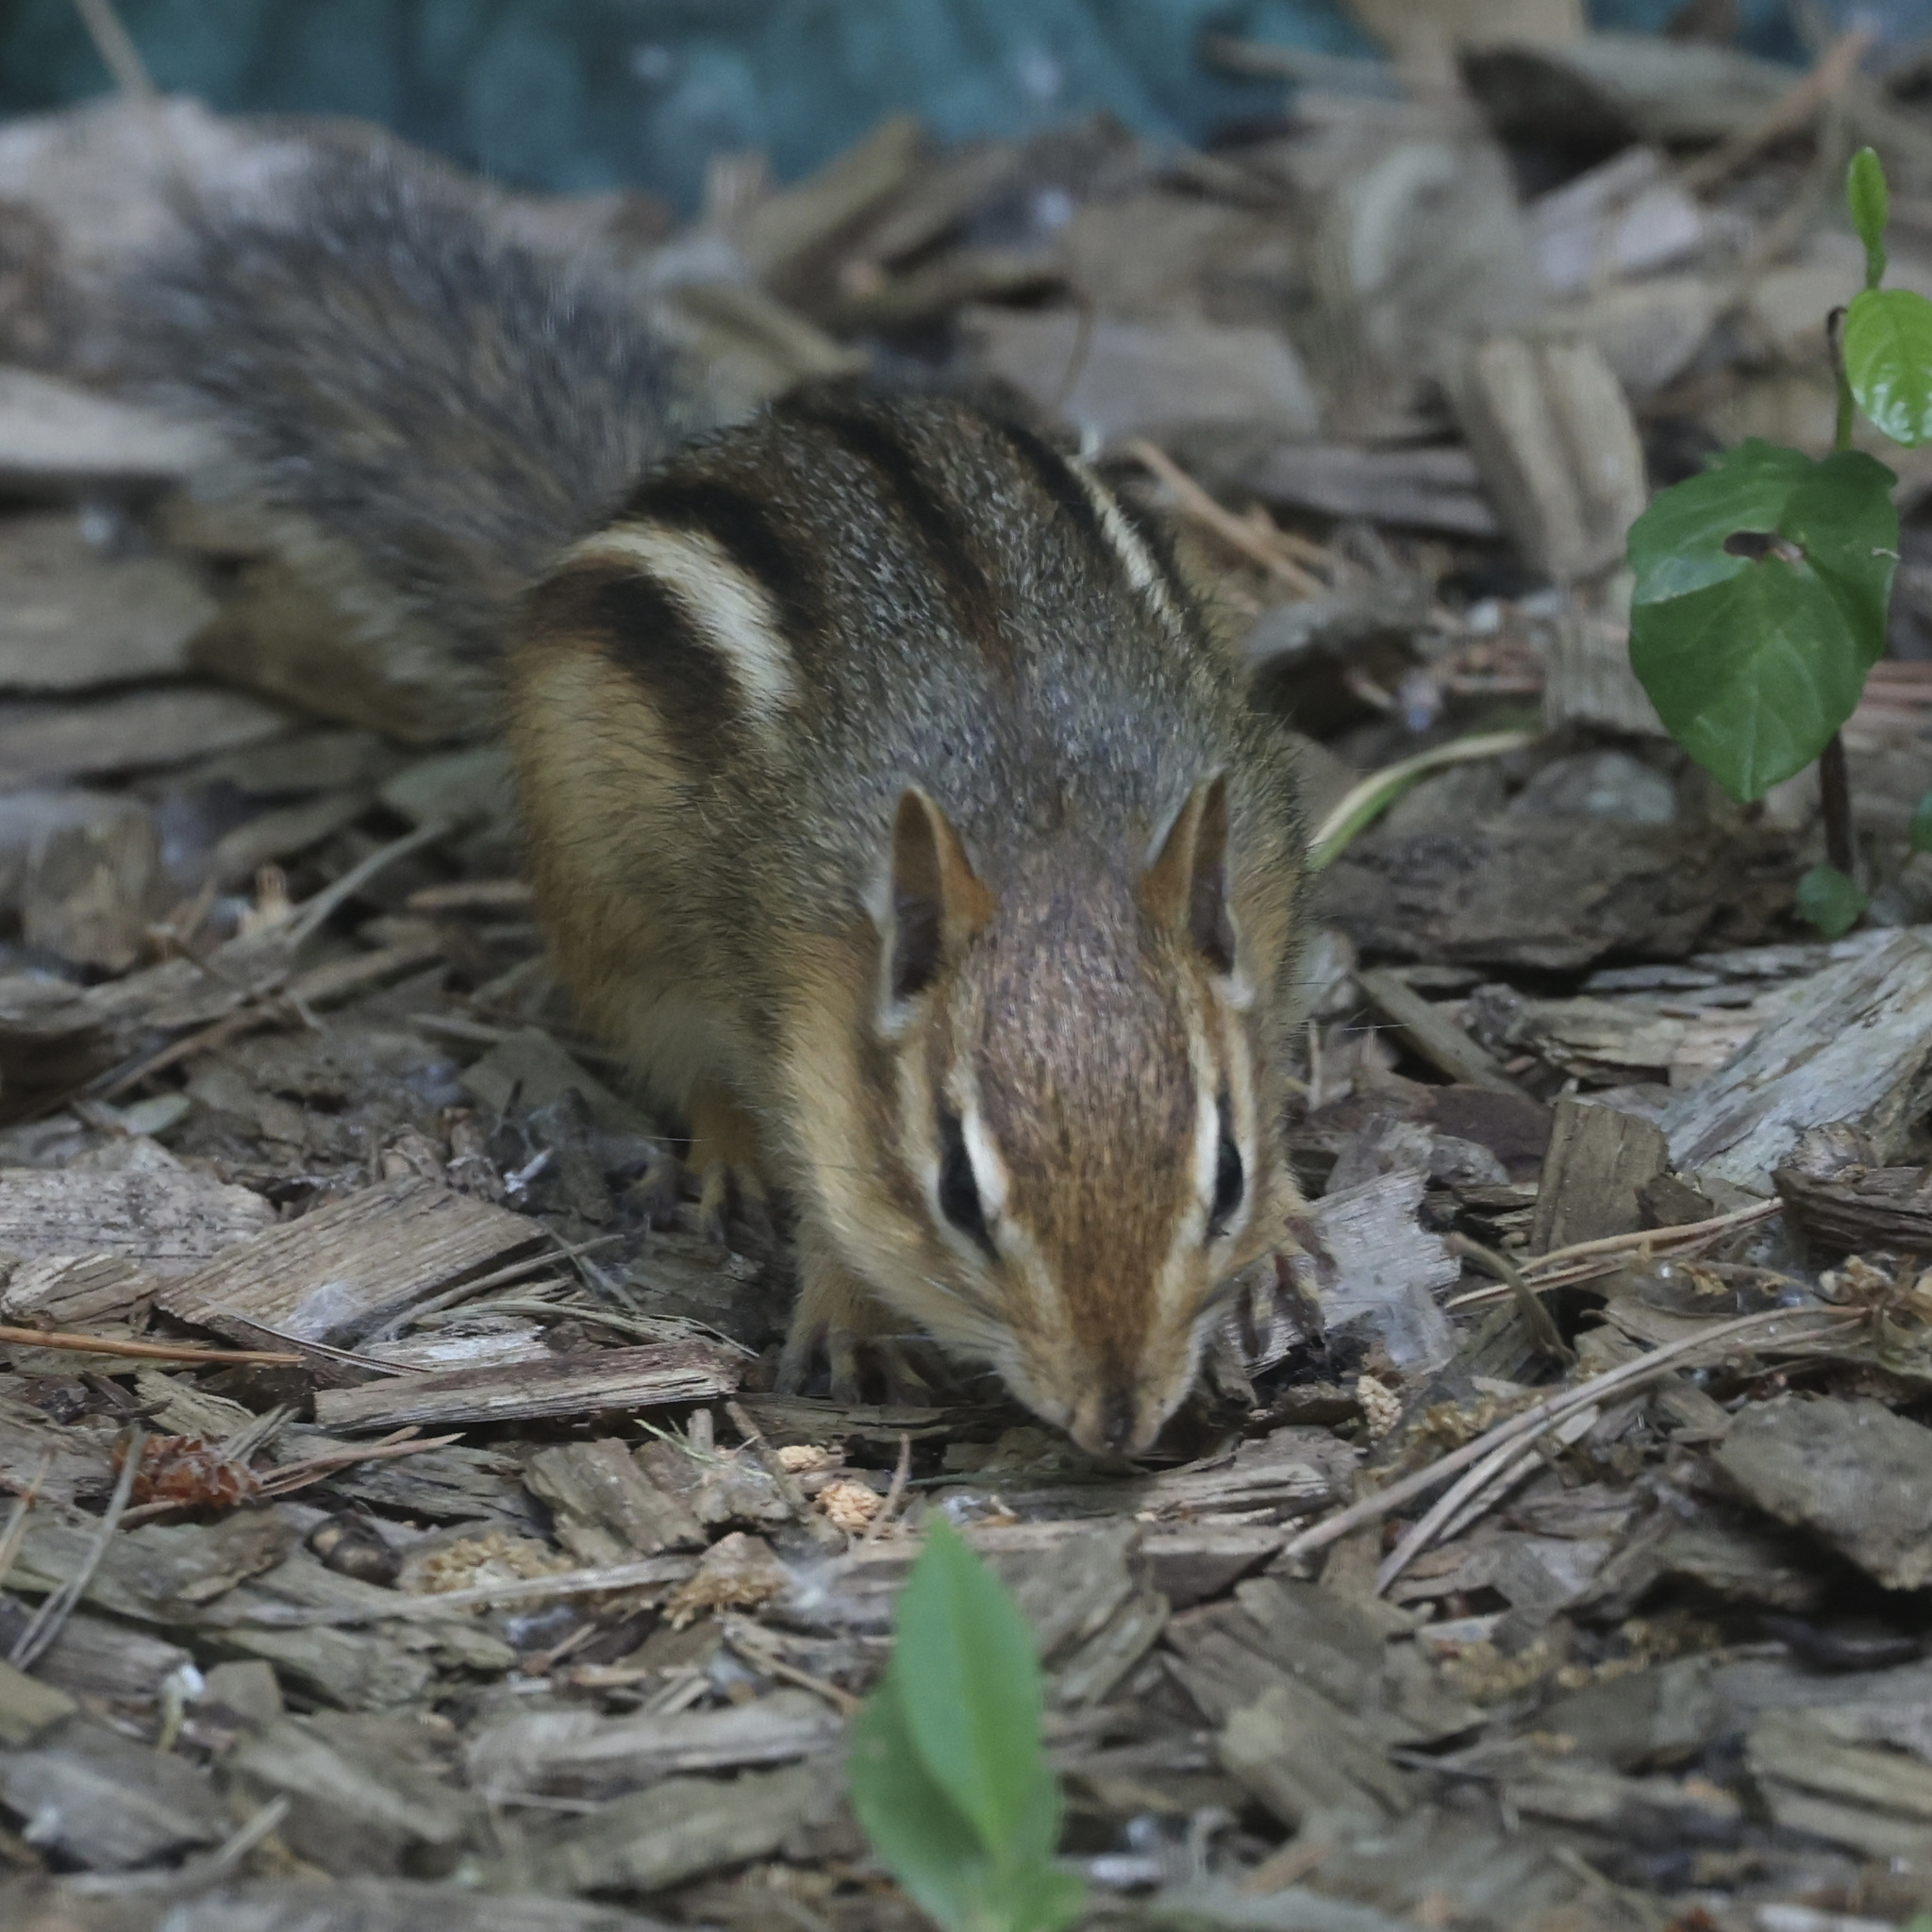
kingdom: Animalia
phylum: Chordata
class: Mammalia
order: Rodentia
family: Sciuridae
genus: Tamias
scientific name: Tamias striatus
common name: Eastern chipmunk
